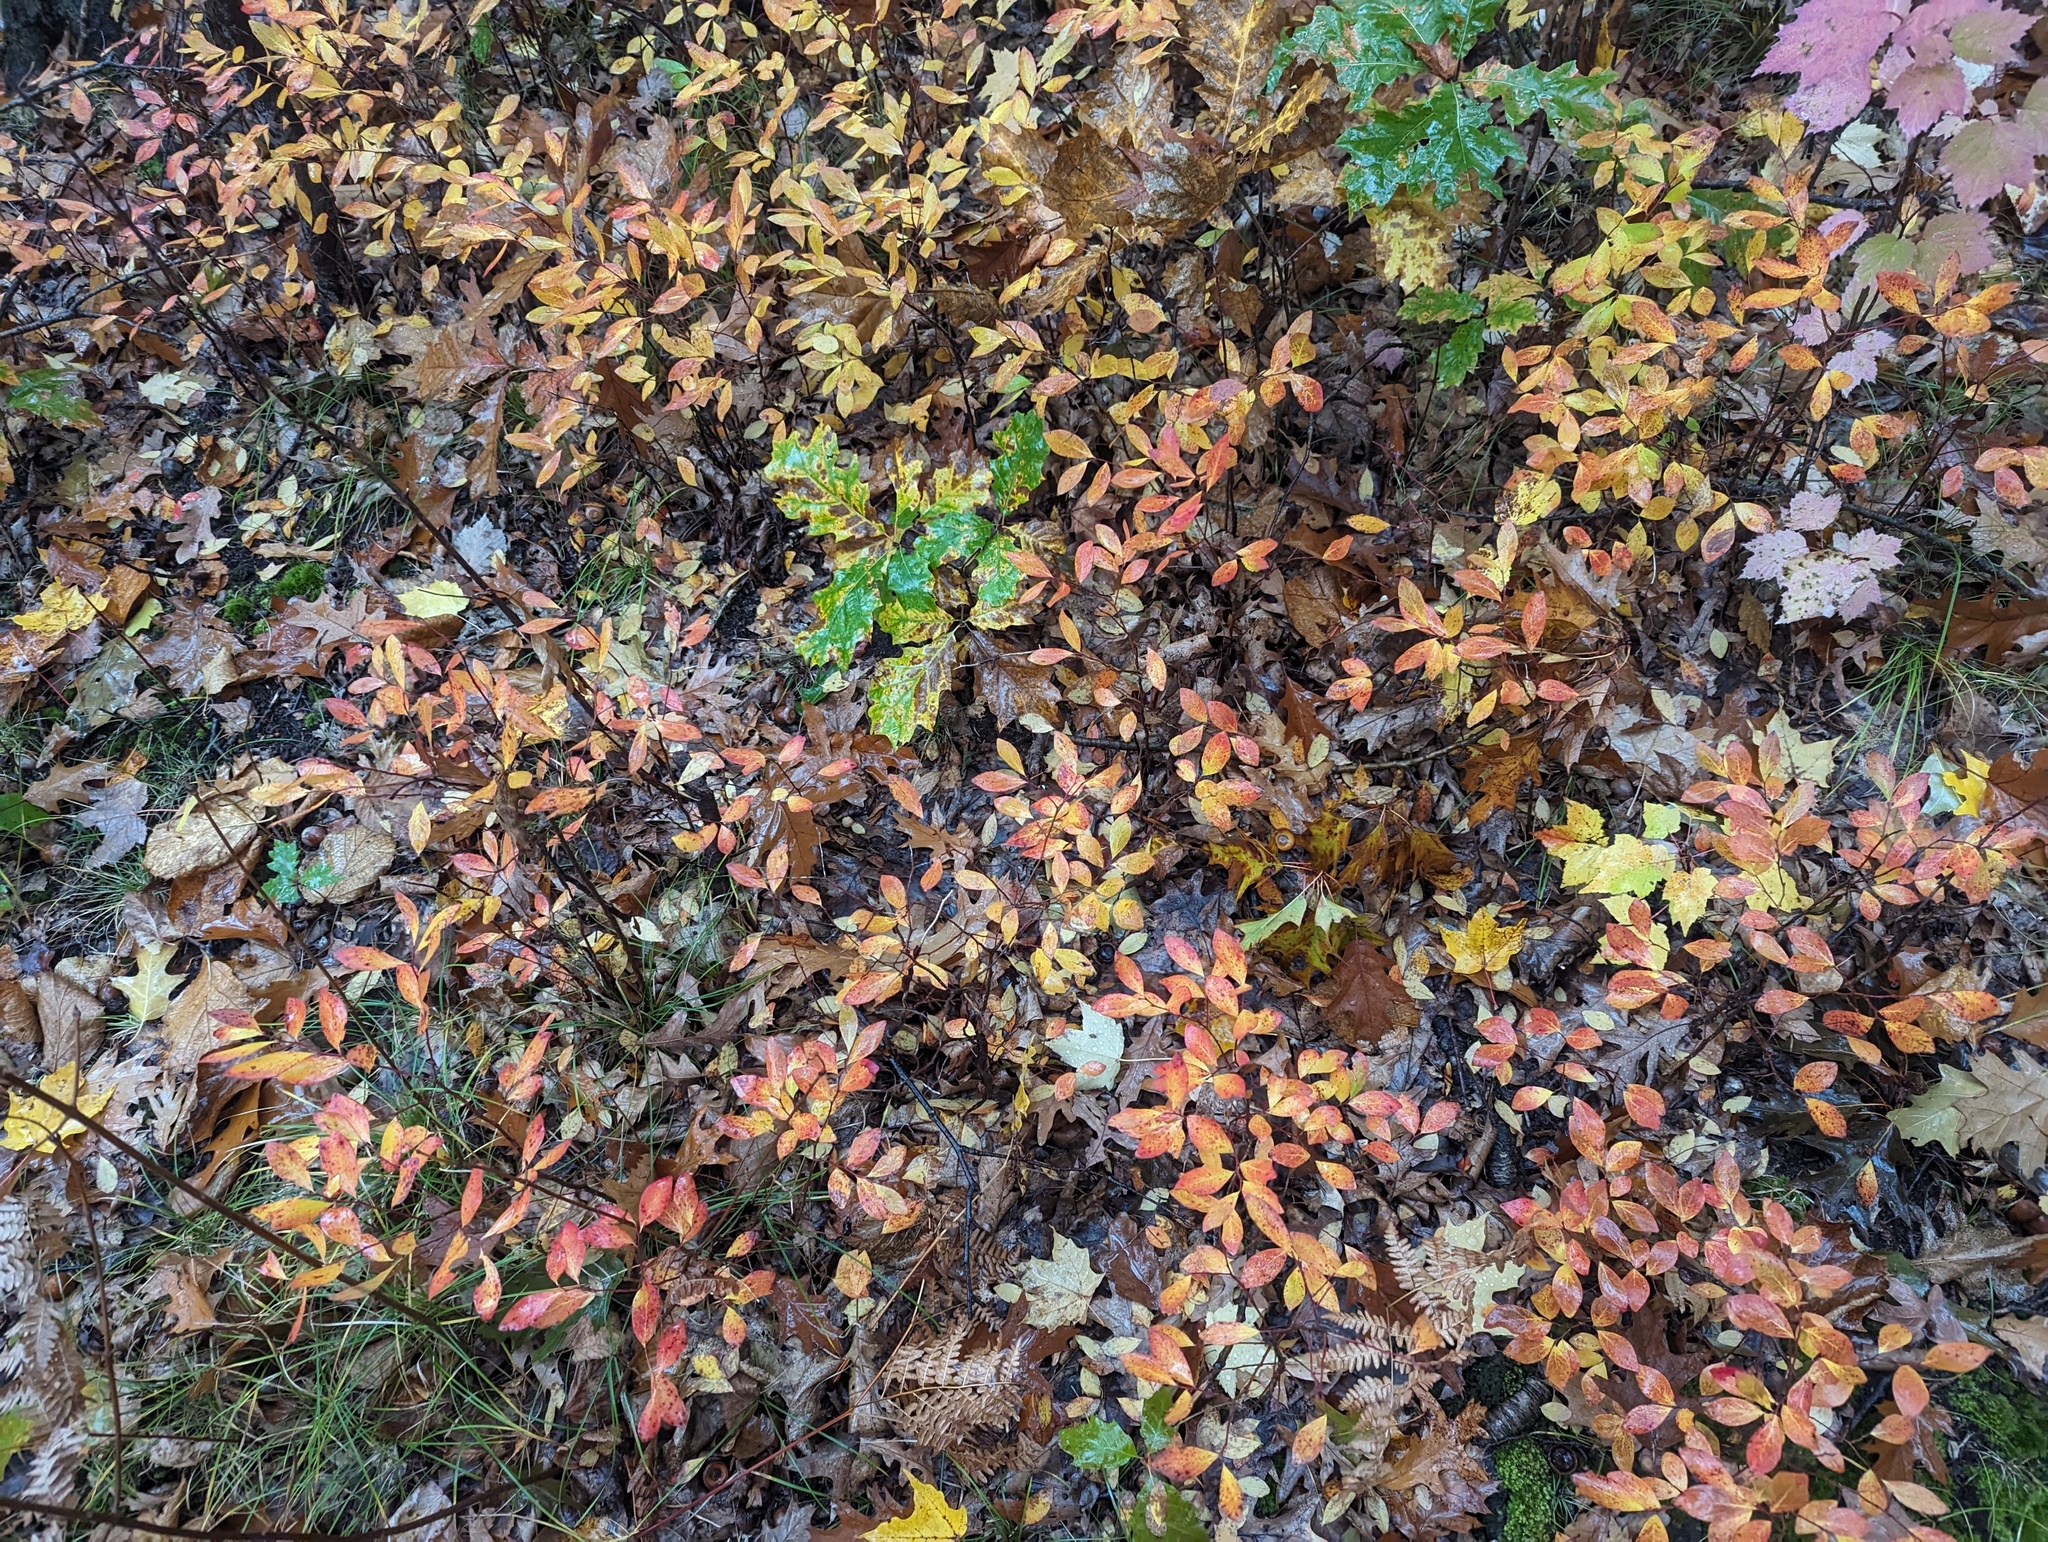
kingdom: Plantae
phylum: Tracheophyta
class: Magnoliopsida
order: Ericales
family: Ericaceae
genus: Gaylussacia
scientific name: Gaylussacia baccata
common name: Black huckleberry
